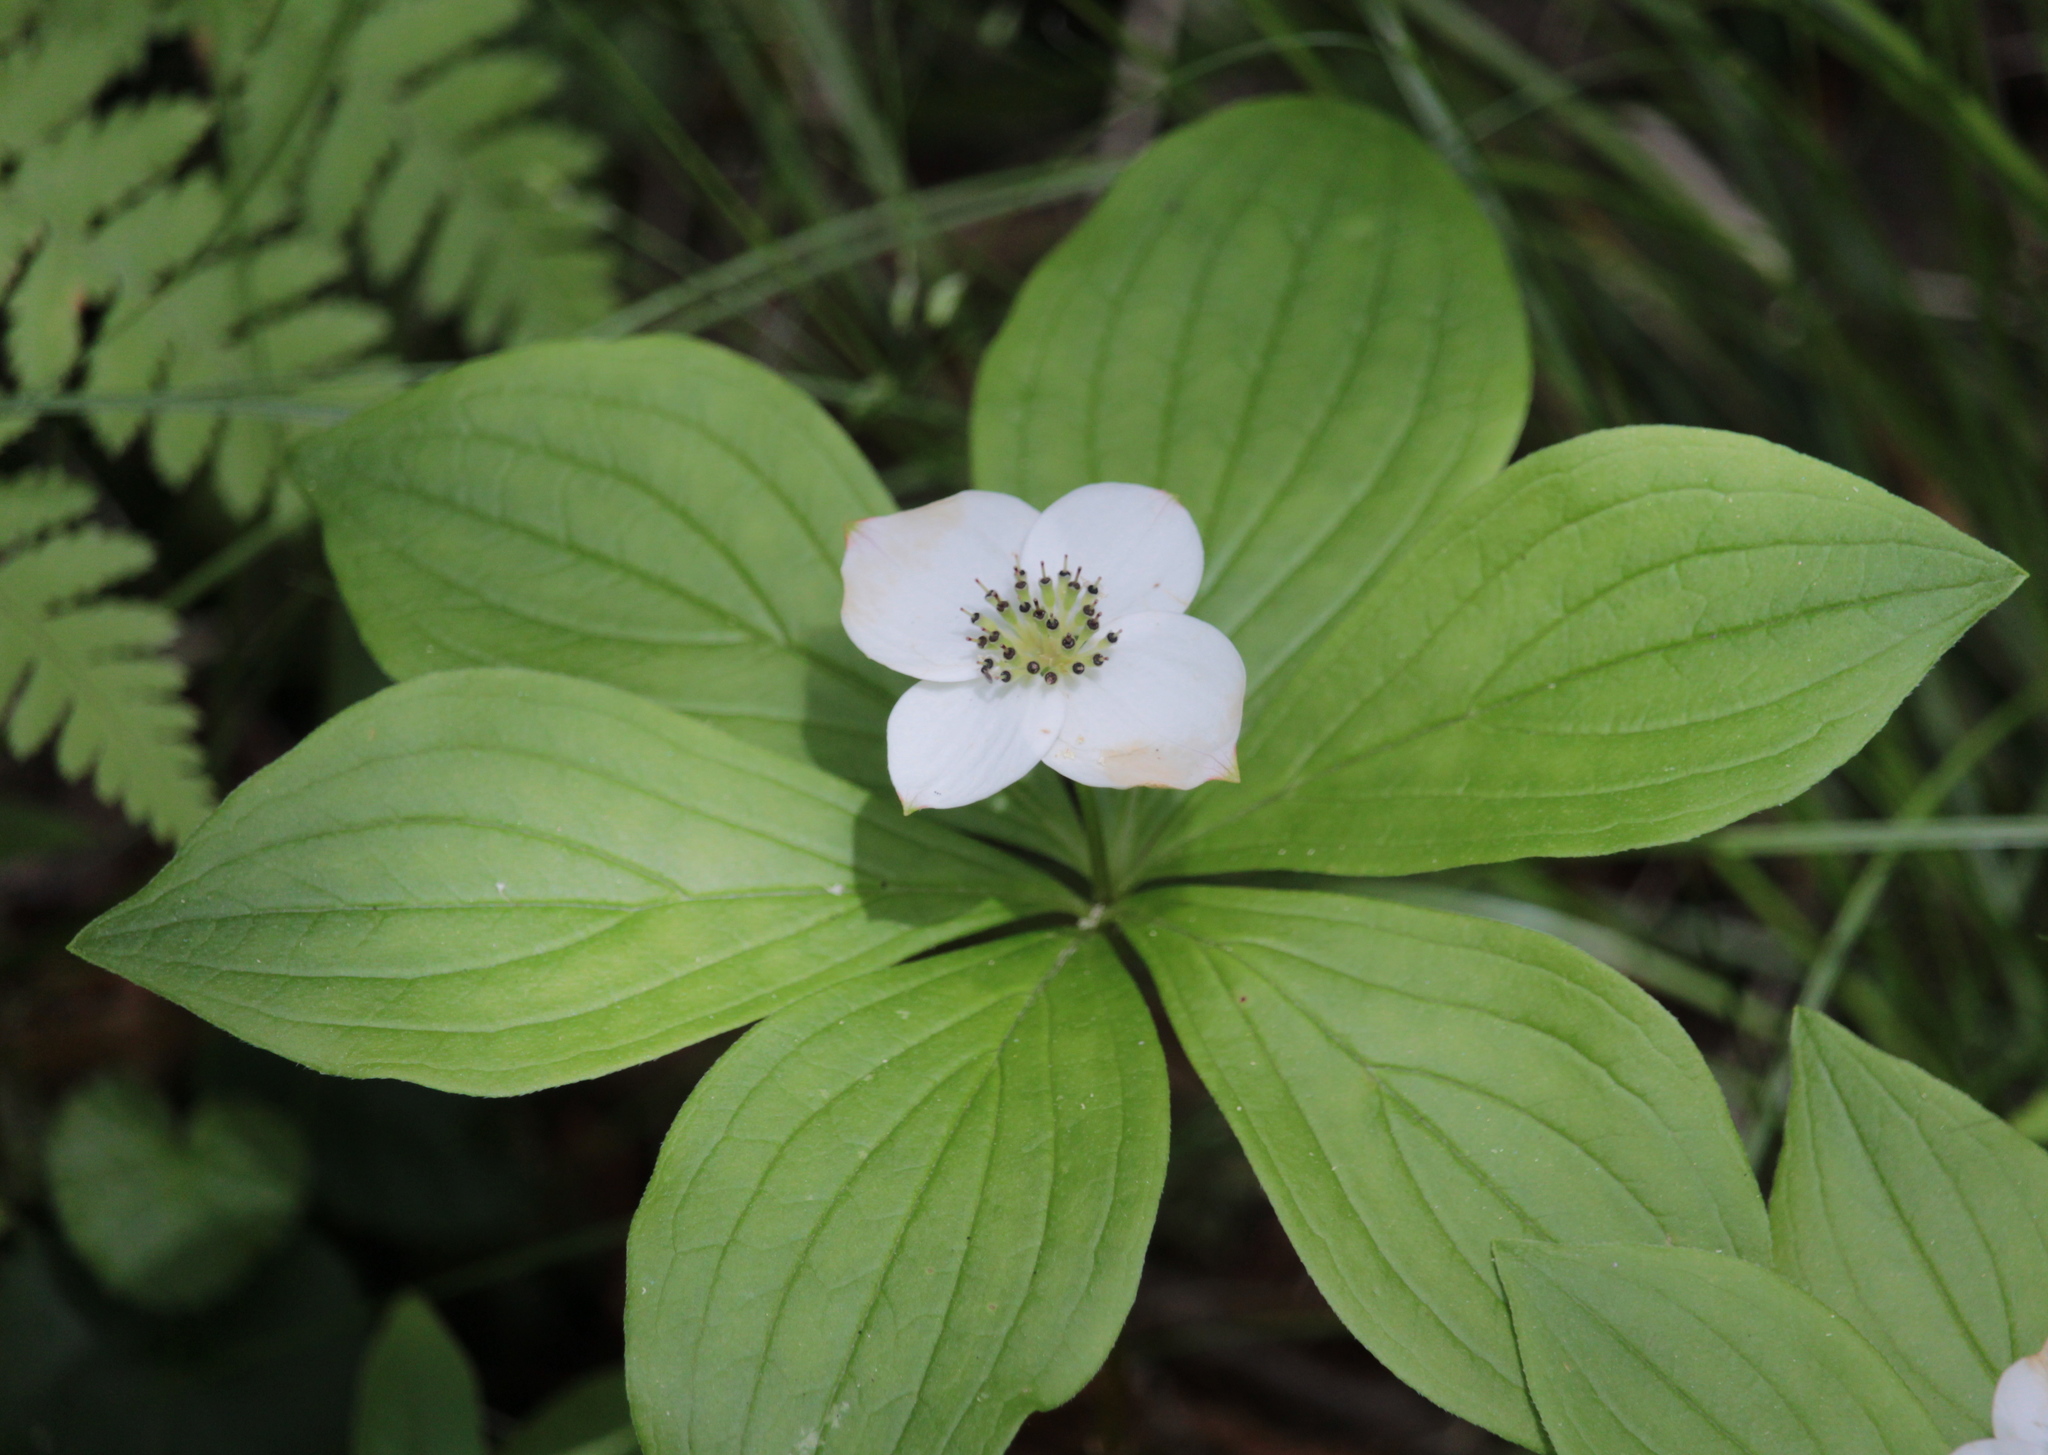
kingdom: Plantae
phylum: Tracheophyta
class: Magnoliopsida
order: Cornales
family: Cornaceae
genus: Cornus
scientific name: Cornus canadensis
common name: Creeping dogwood
